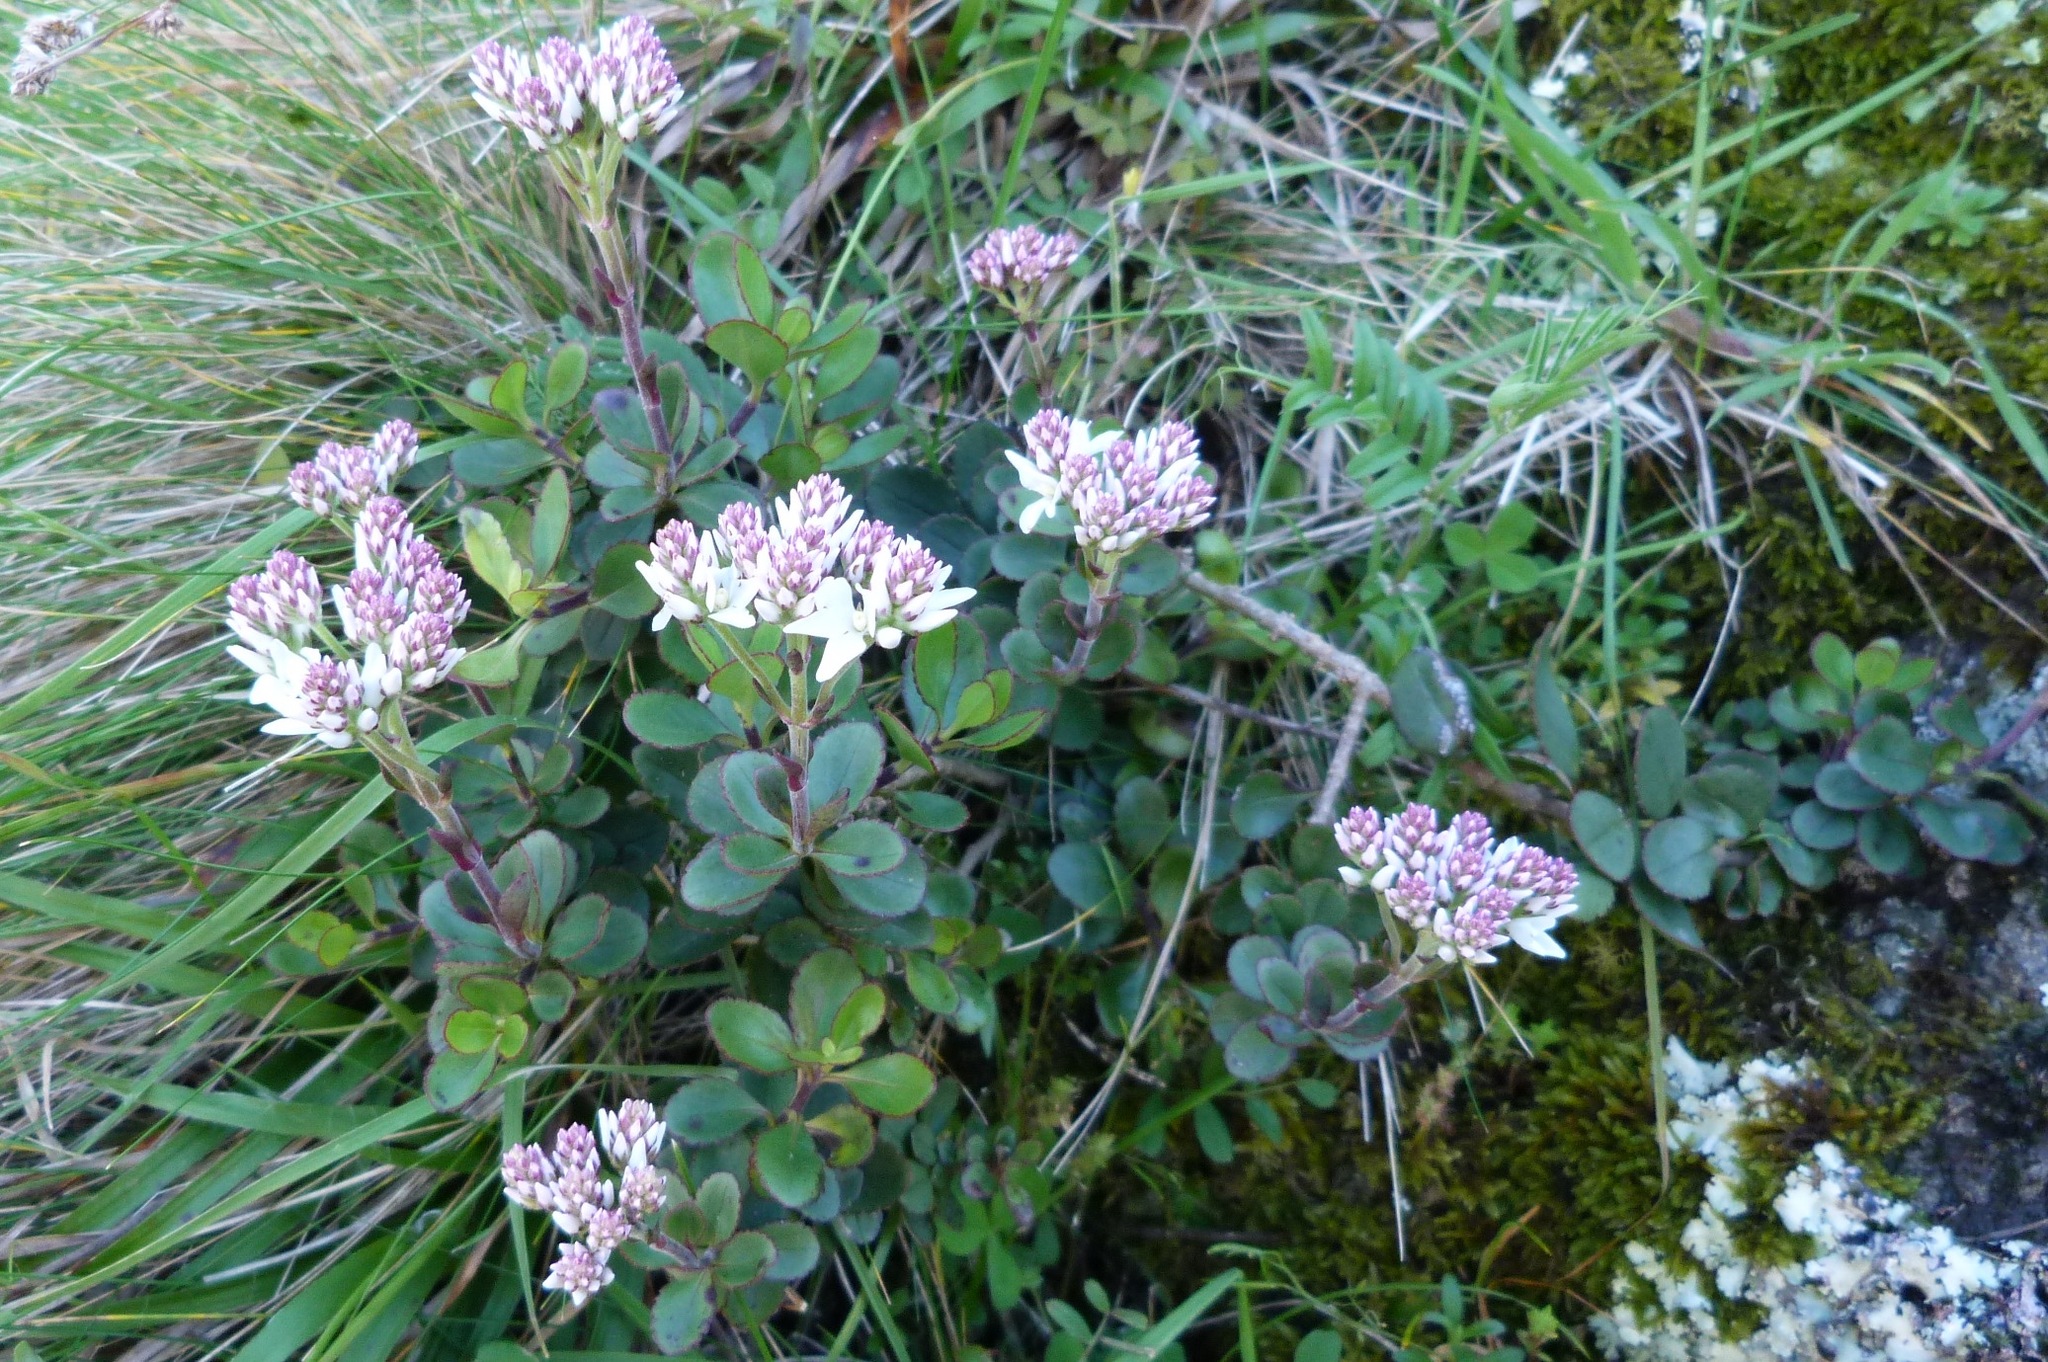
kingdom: Plantae
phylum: Tracheophyta
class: Magnoliopsida
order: Lamiales
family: Plantaginaceae
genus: Veronica
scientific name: Veronica lavaudiana
